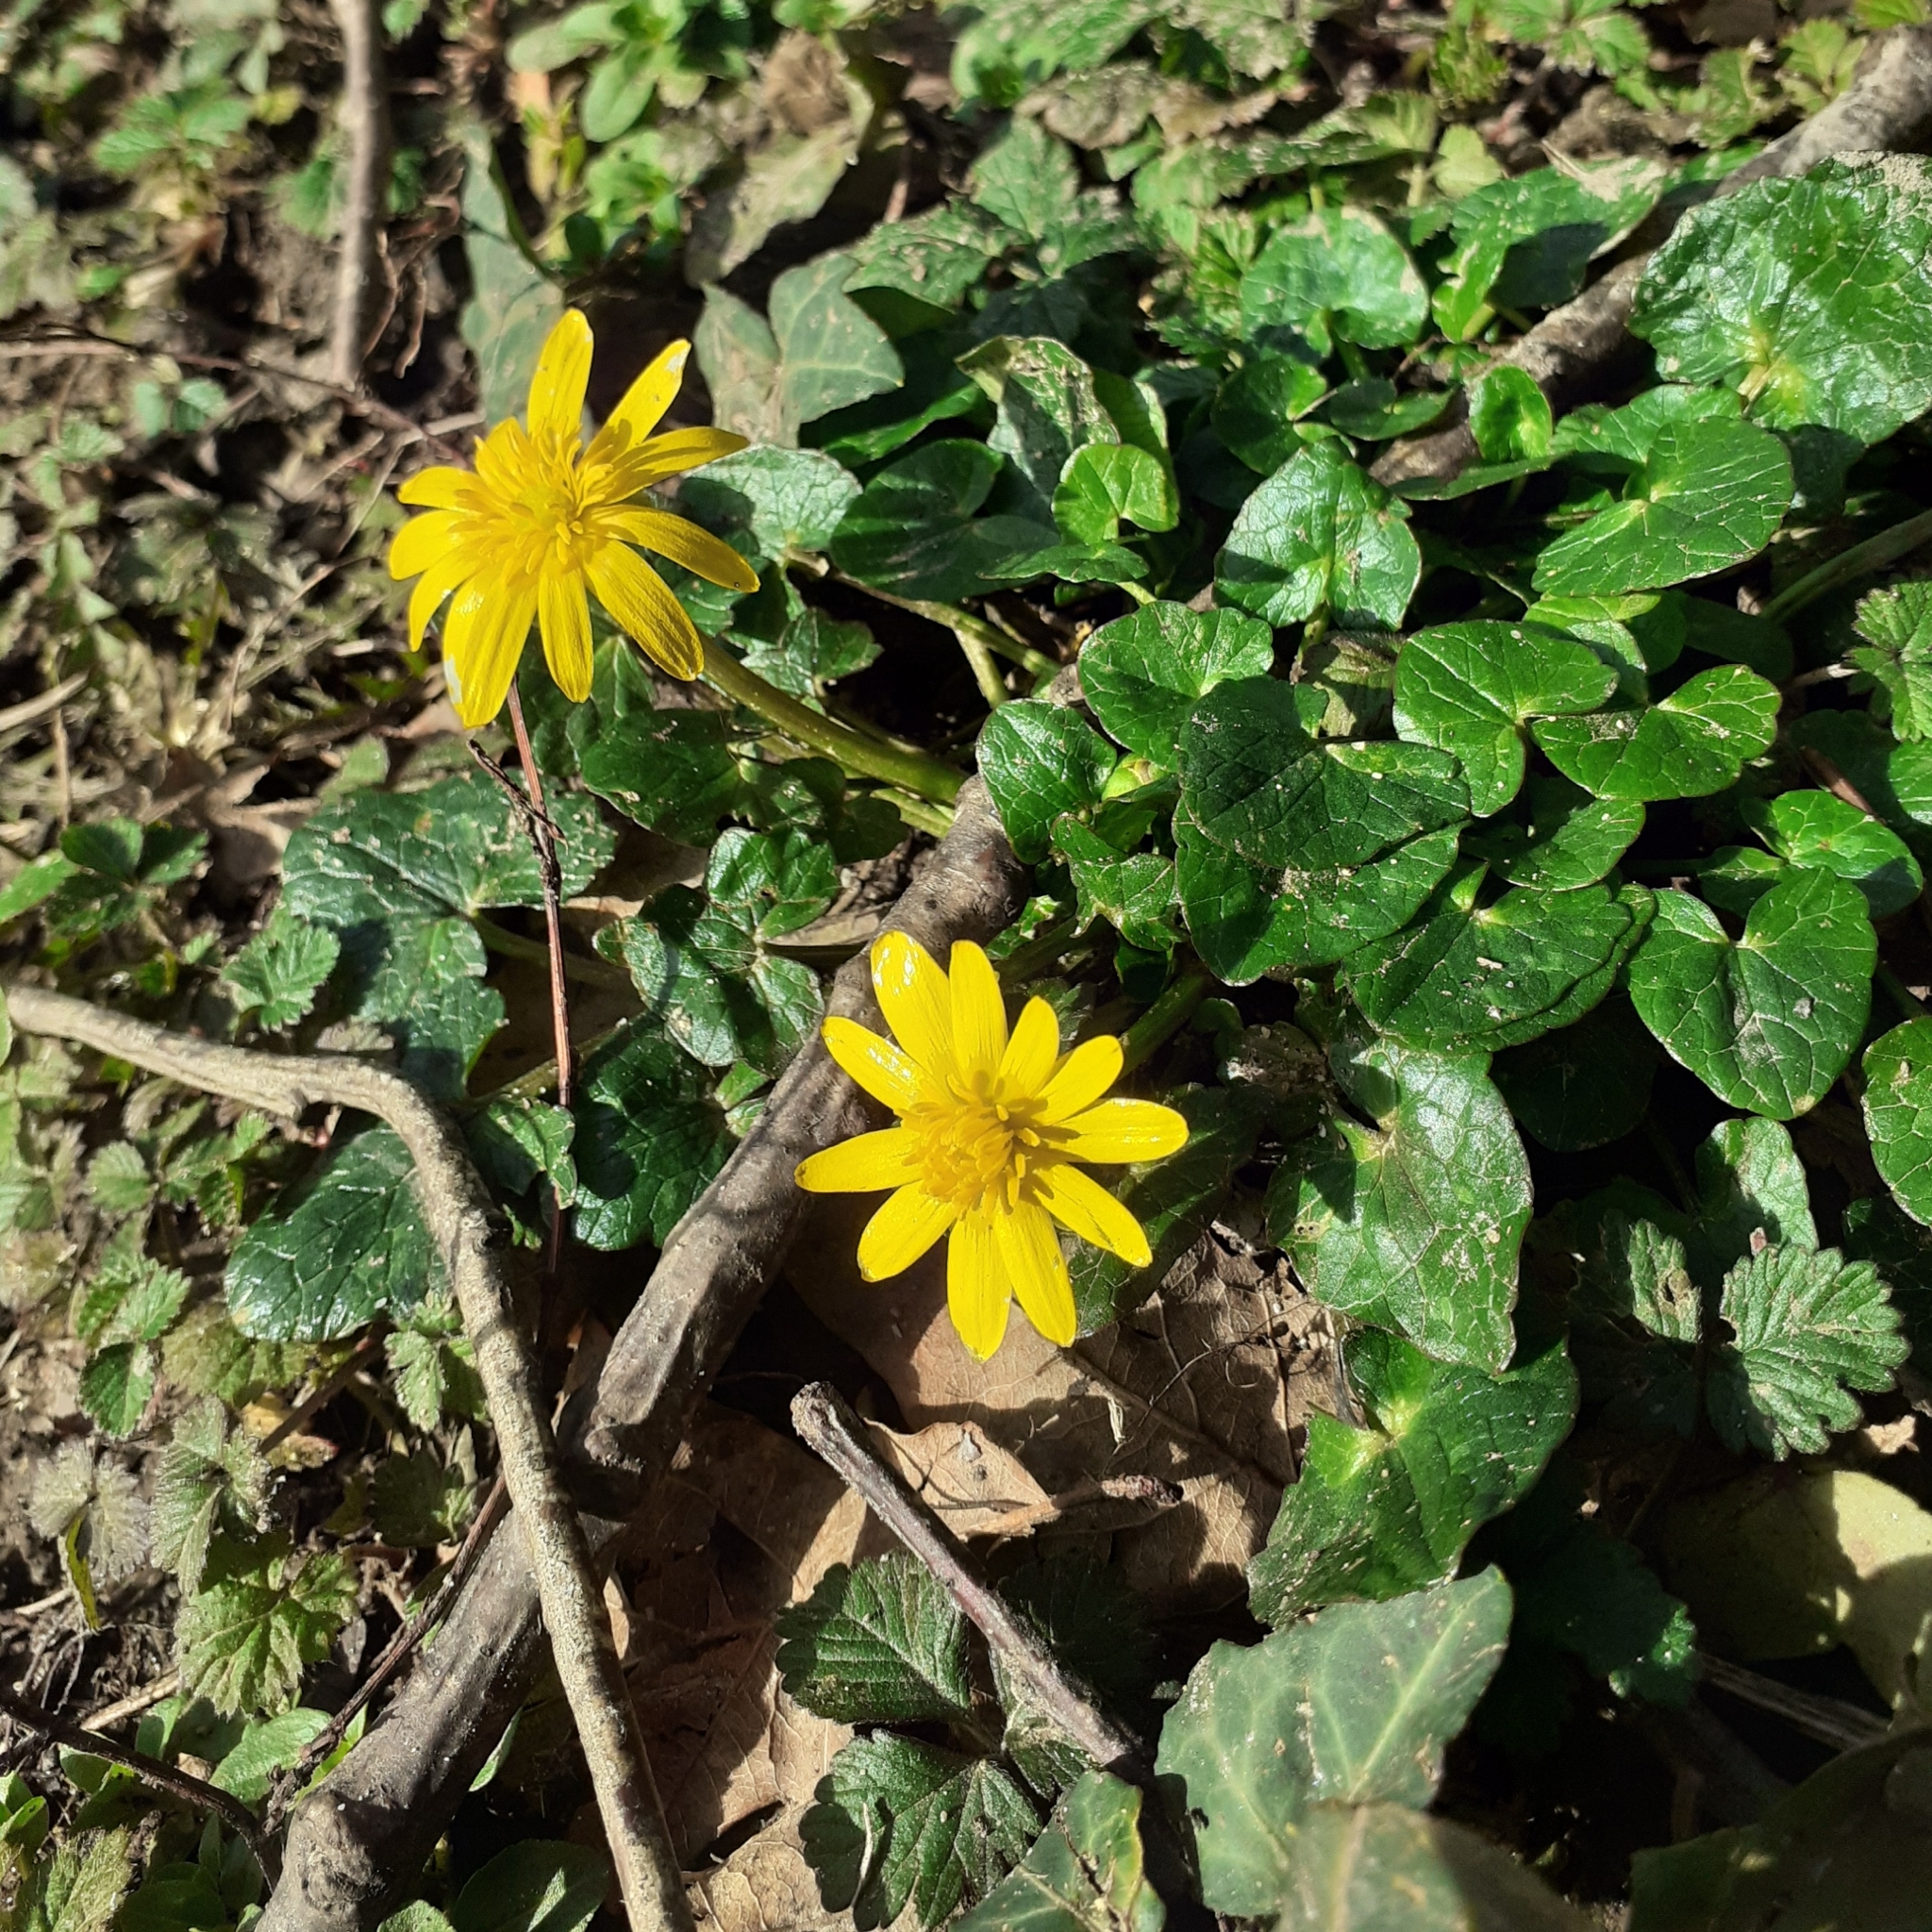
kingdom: Plantae
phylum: Tracheophyta
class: Magnoliopsida
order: Ranunculales
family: Ranunculaceae
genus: Ficaria
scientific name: Ficaria verna
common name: Lesser celandine
